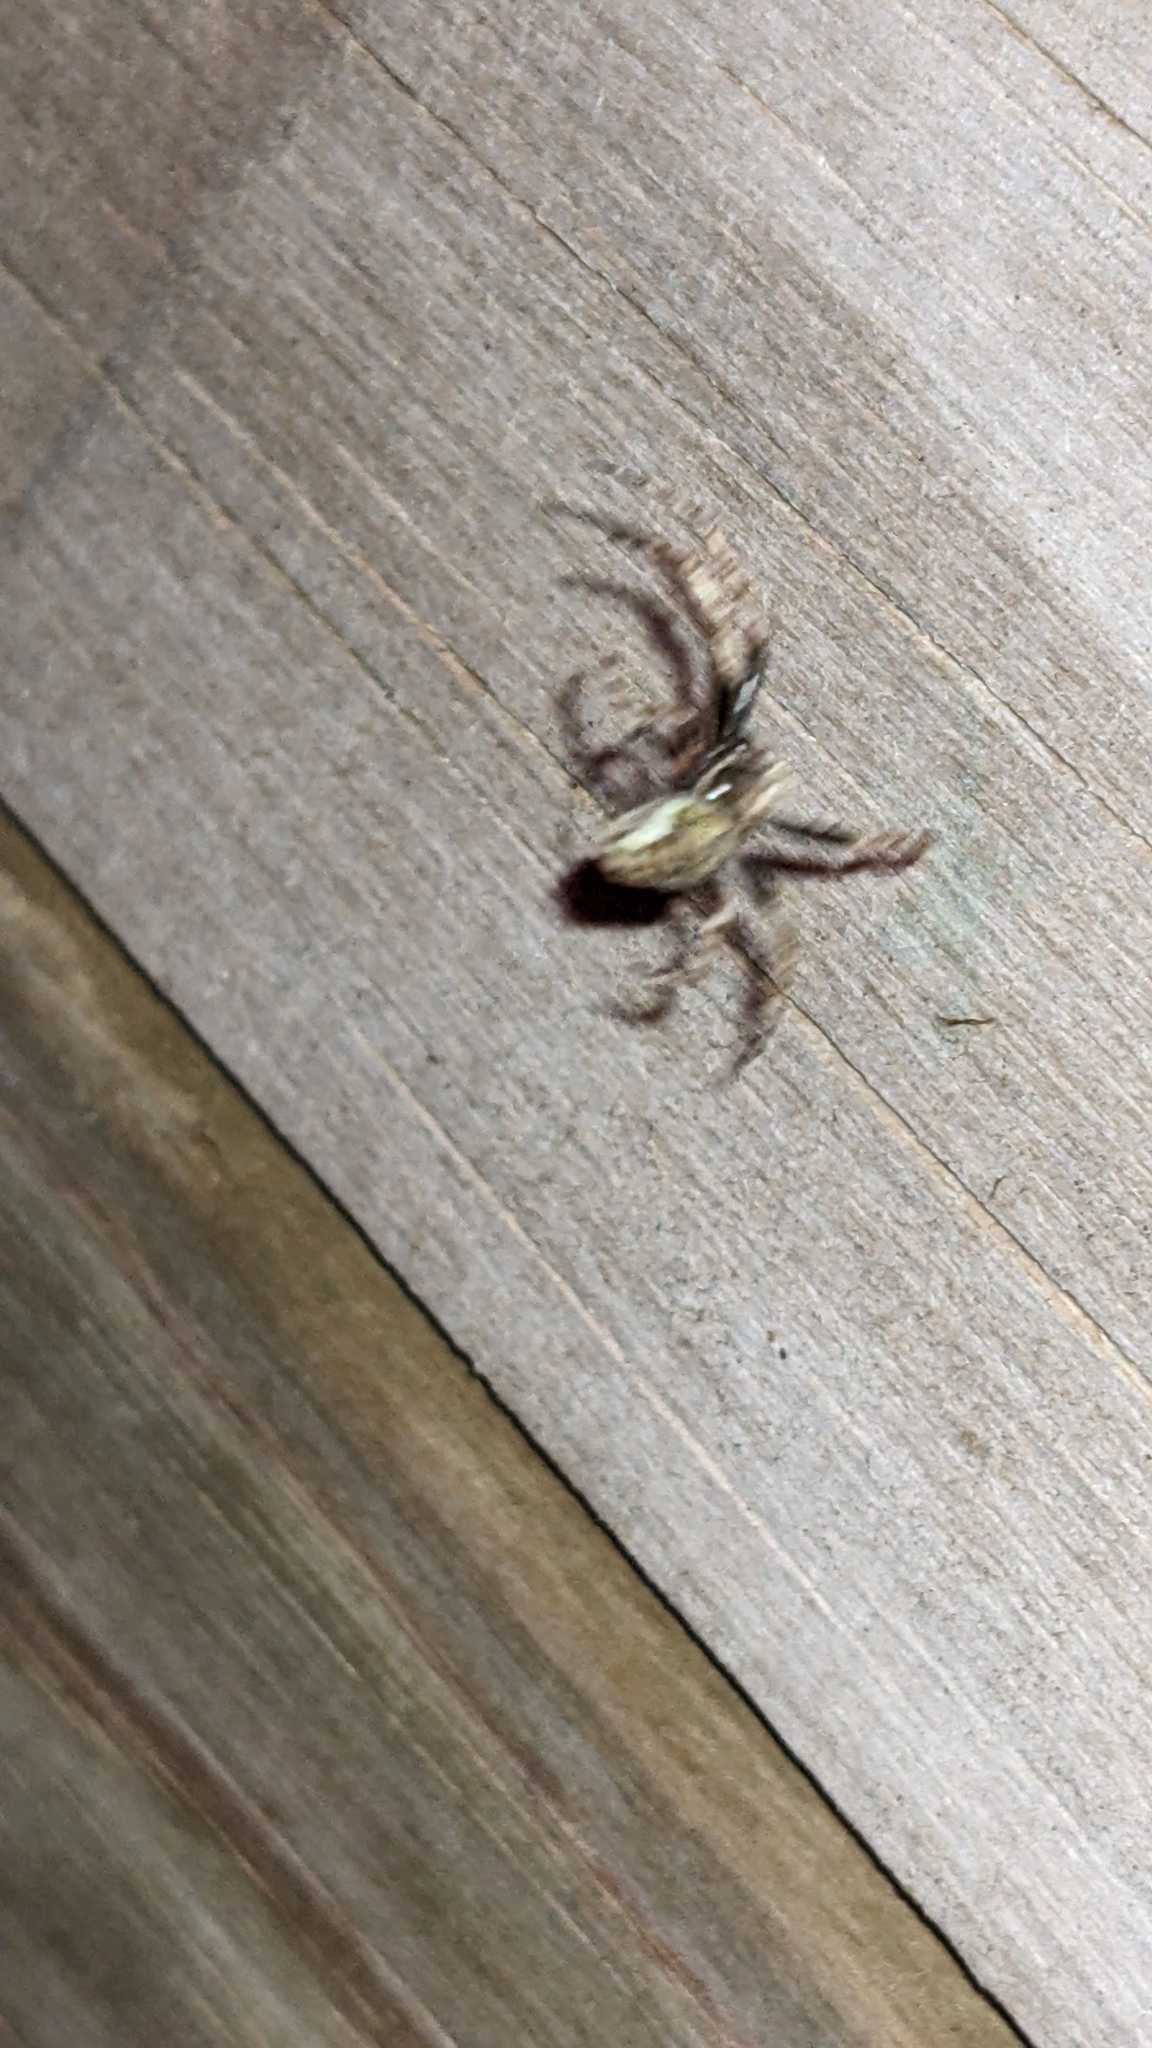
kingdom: Animalia
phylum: Arthropoda
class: Arachnida
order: Araneae
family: Araneidae
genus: Eriophora
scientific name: Eriophora pustulosa
